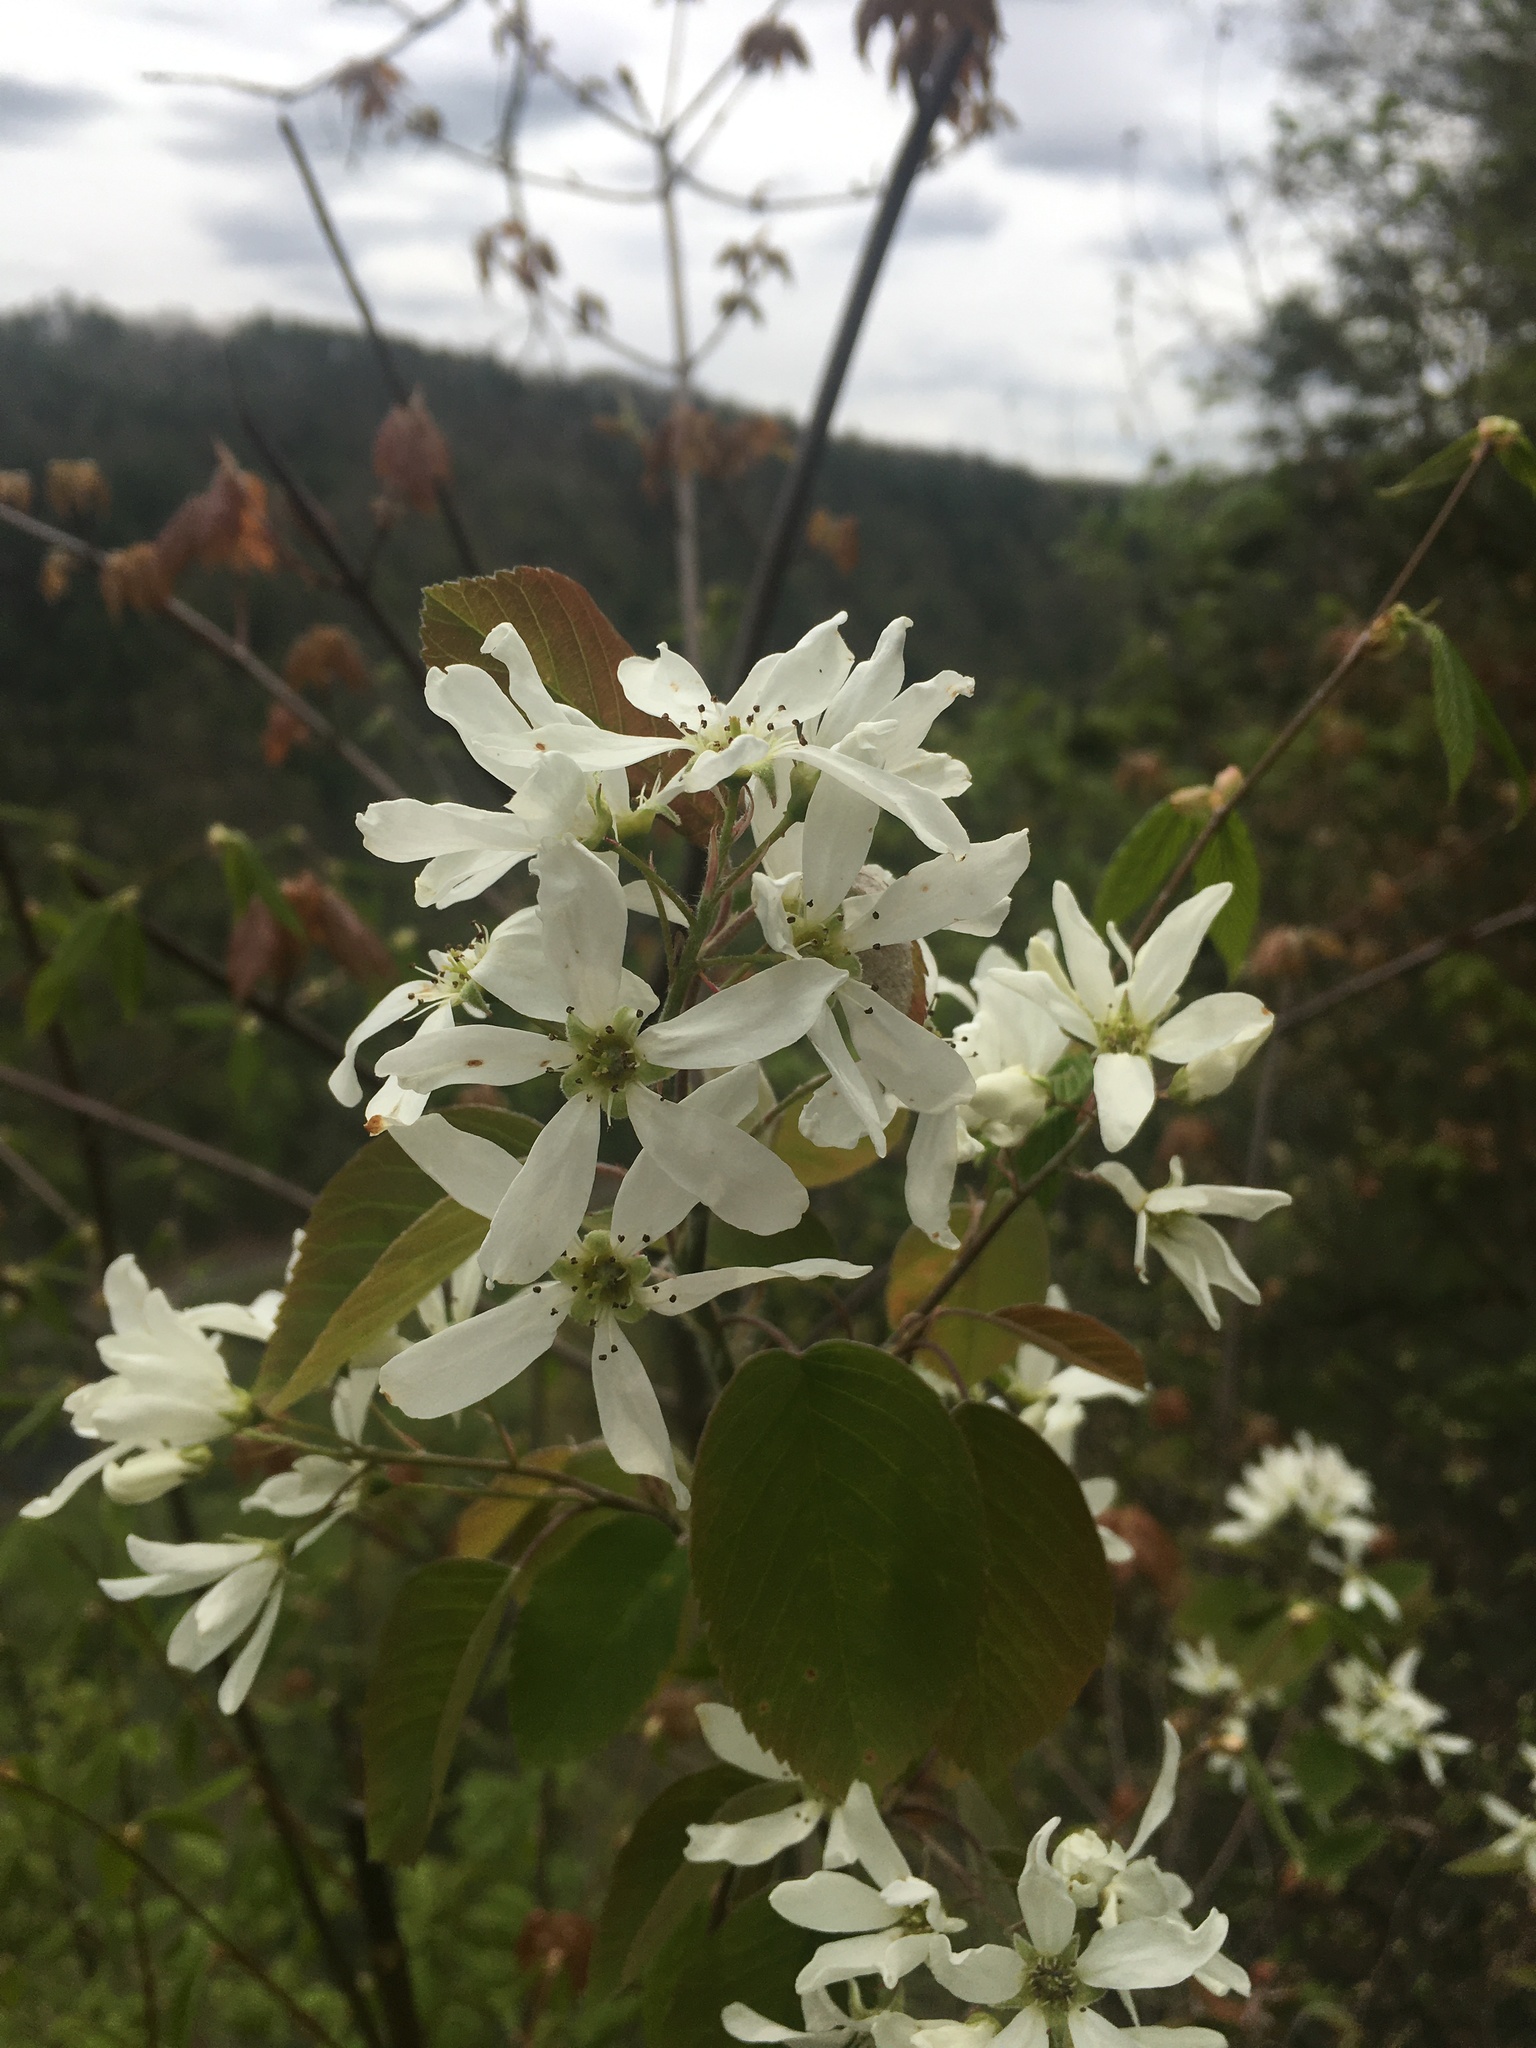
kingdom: Plantae
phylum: Tracheophyta
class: Magnoliopsida
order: Rosales
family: Rosaceae
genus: Amelanchier
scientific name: Amelanchier sanguinea
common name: Huron serviceberry
